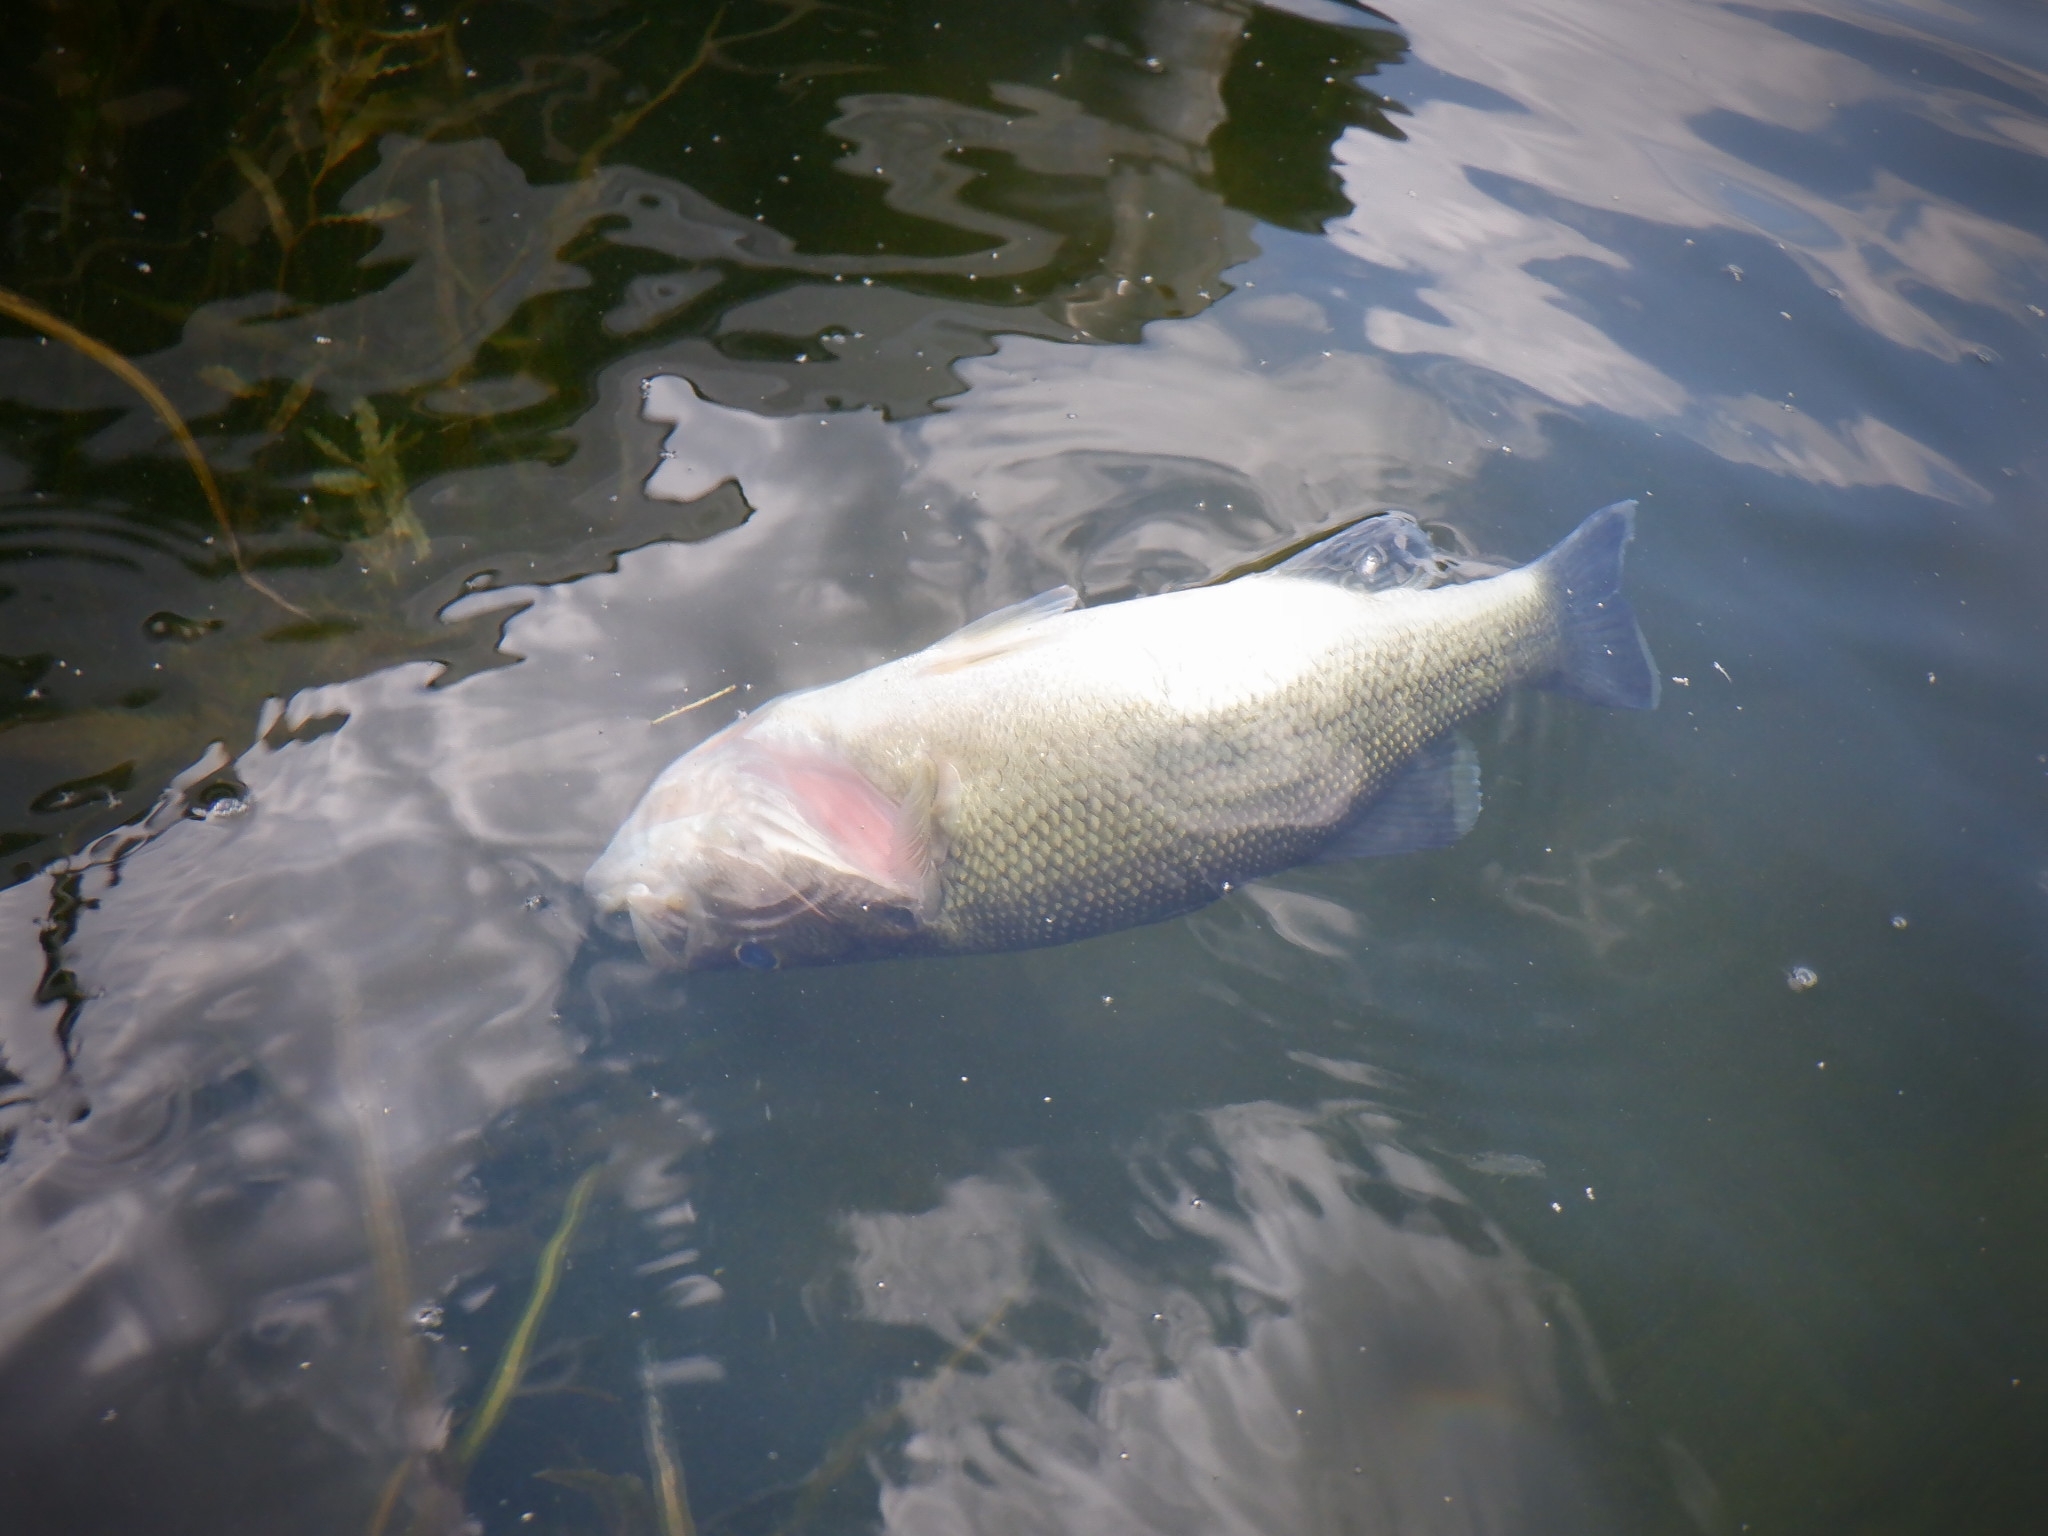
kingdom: Animalia
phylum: Chordata
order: Perciformes
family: Centrarchidae
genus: Micropterus
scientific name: Micropterus
